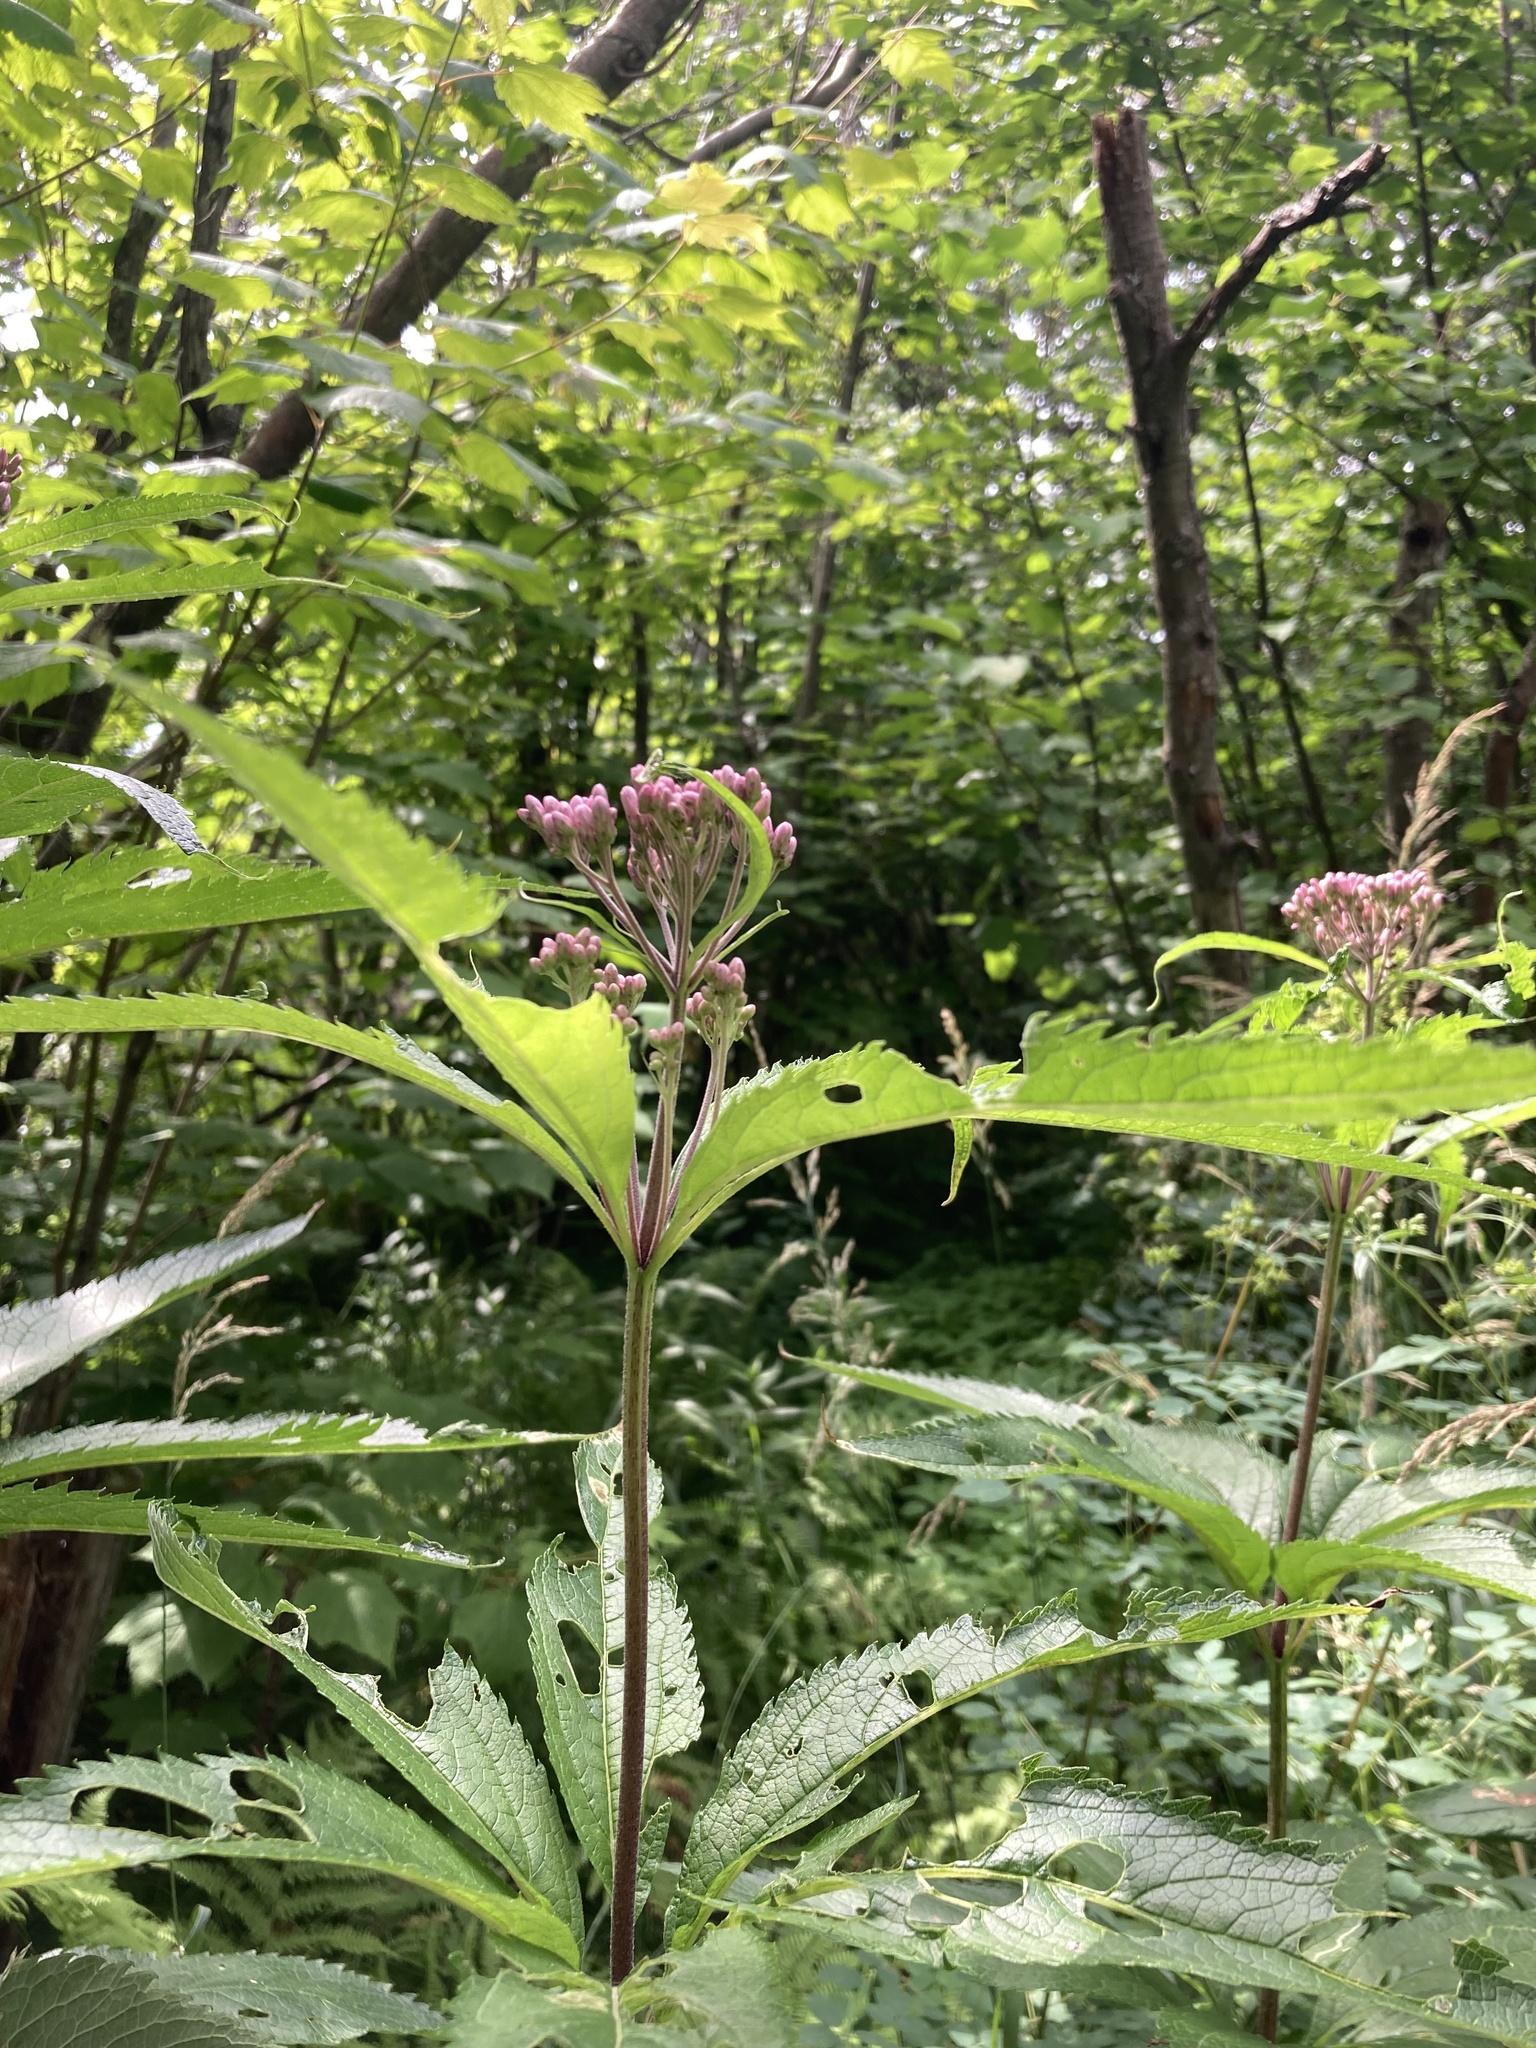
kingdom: Plantae
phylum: Tracheophyta
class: Magnoliopsida
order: Asterales
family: Asteraceae
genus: Eutrochium
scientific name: Eutrochium maculatum
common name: Spotted joe pye weed
